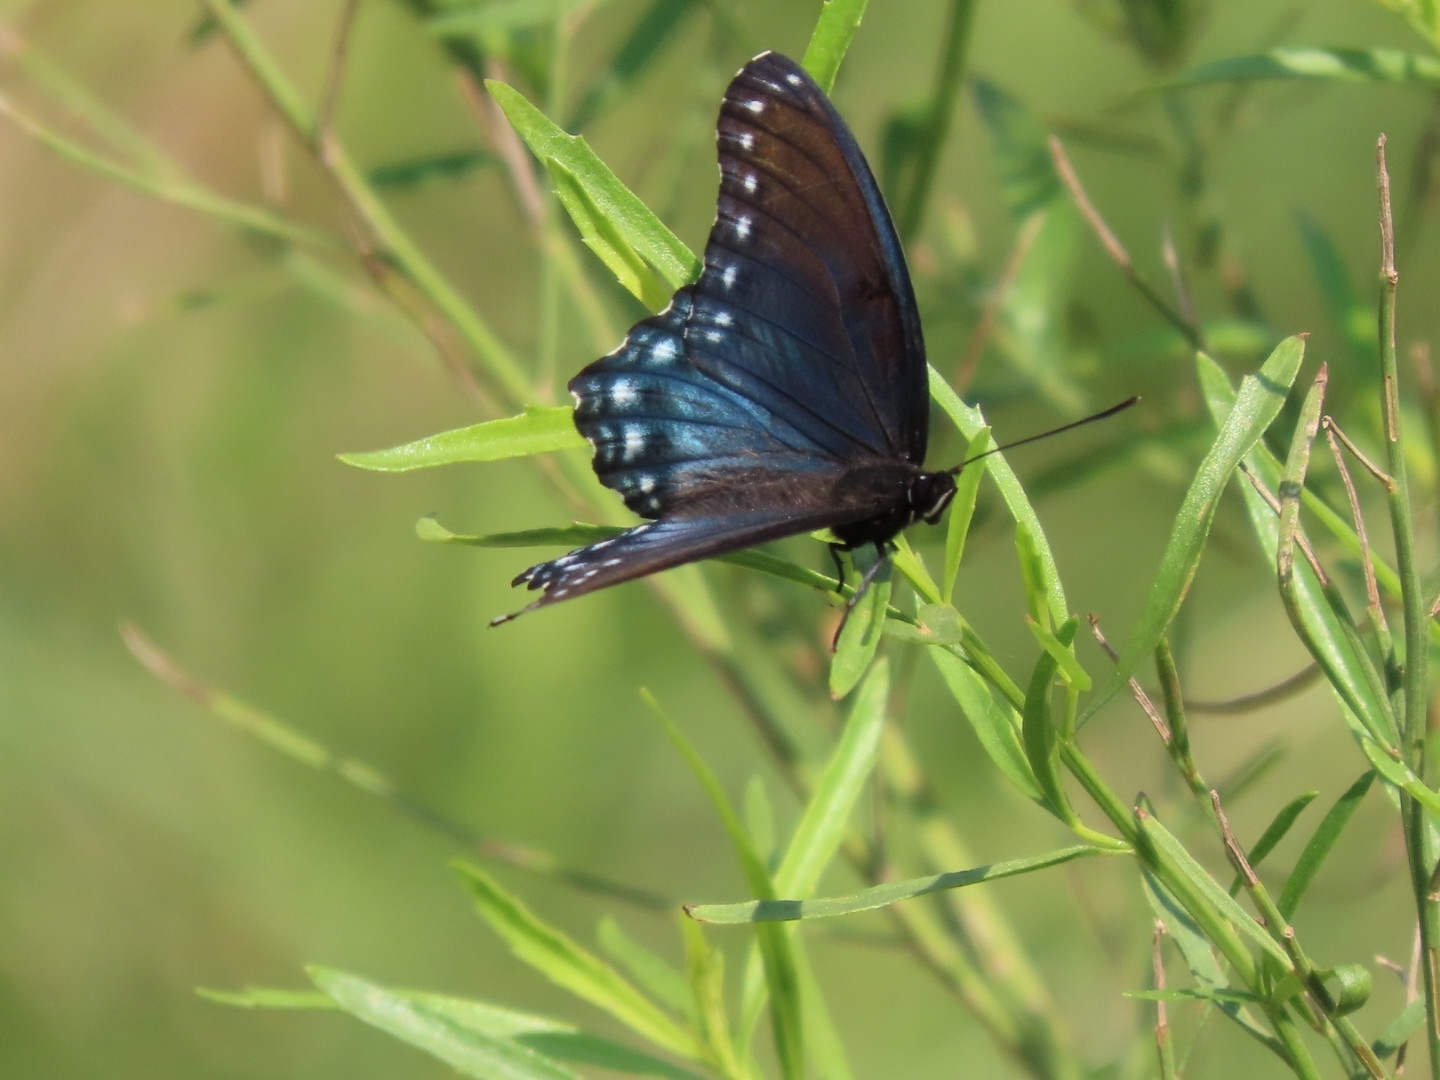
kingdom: Animalia
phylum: Arthropoda
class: Insecta
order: Lepidoptera
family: Nymphalidae
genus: Limenitis
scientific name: Limenitis arthemis
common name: Red-spotted admiral
